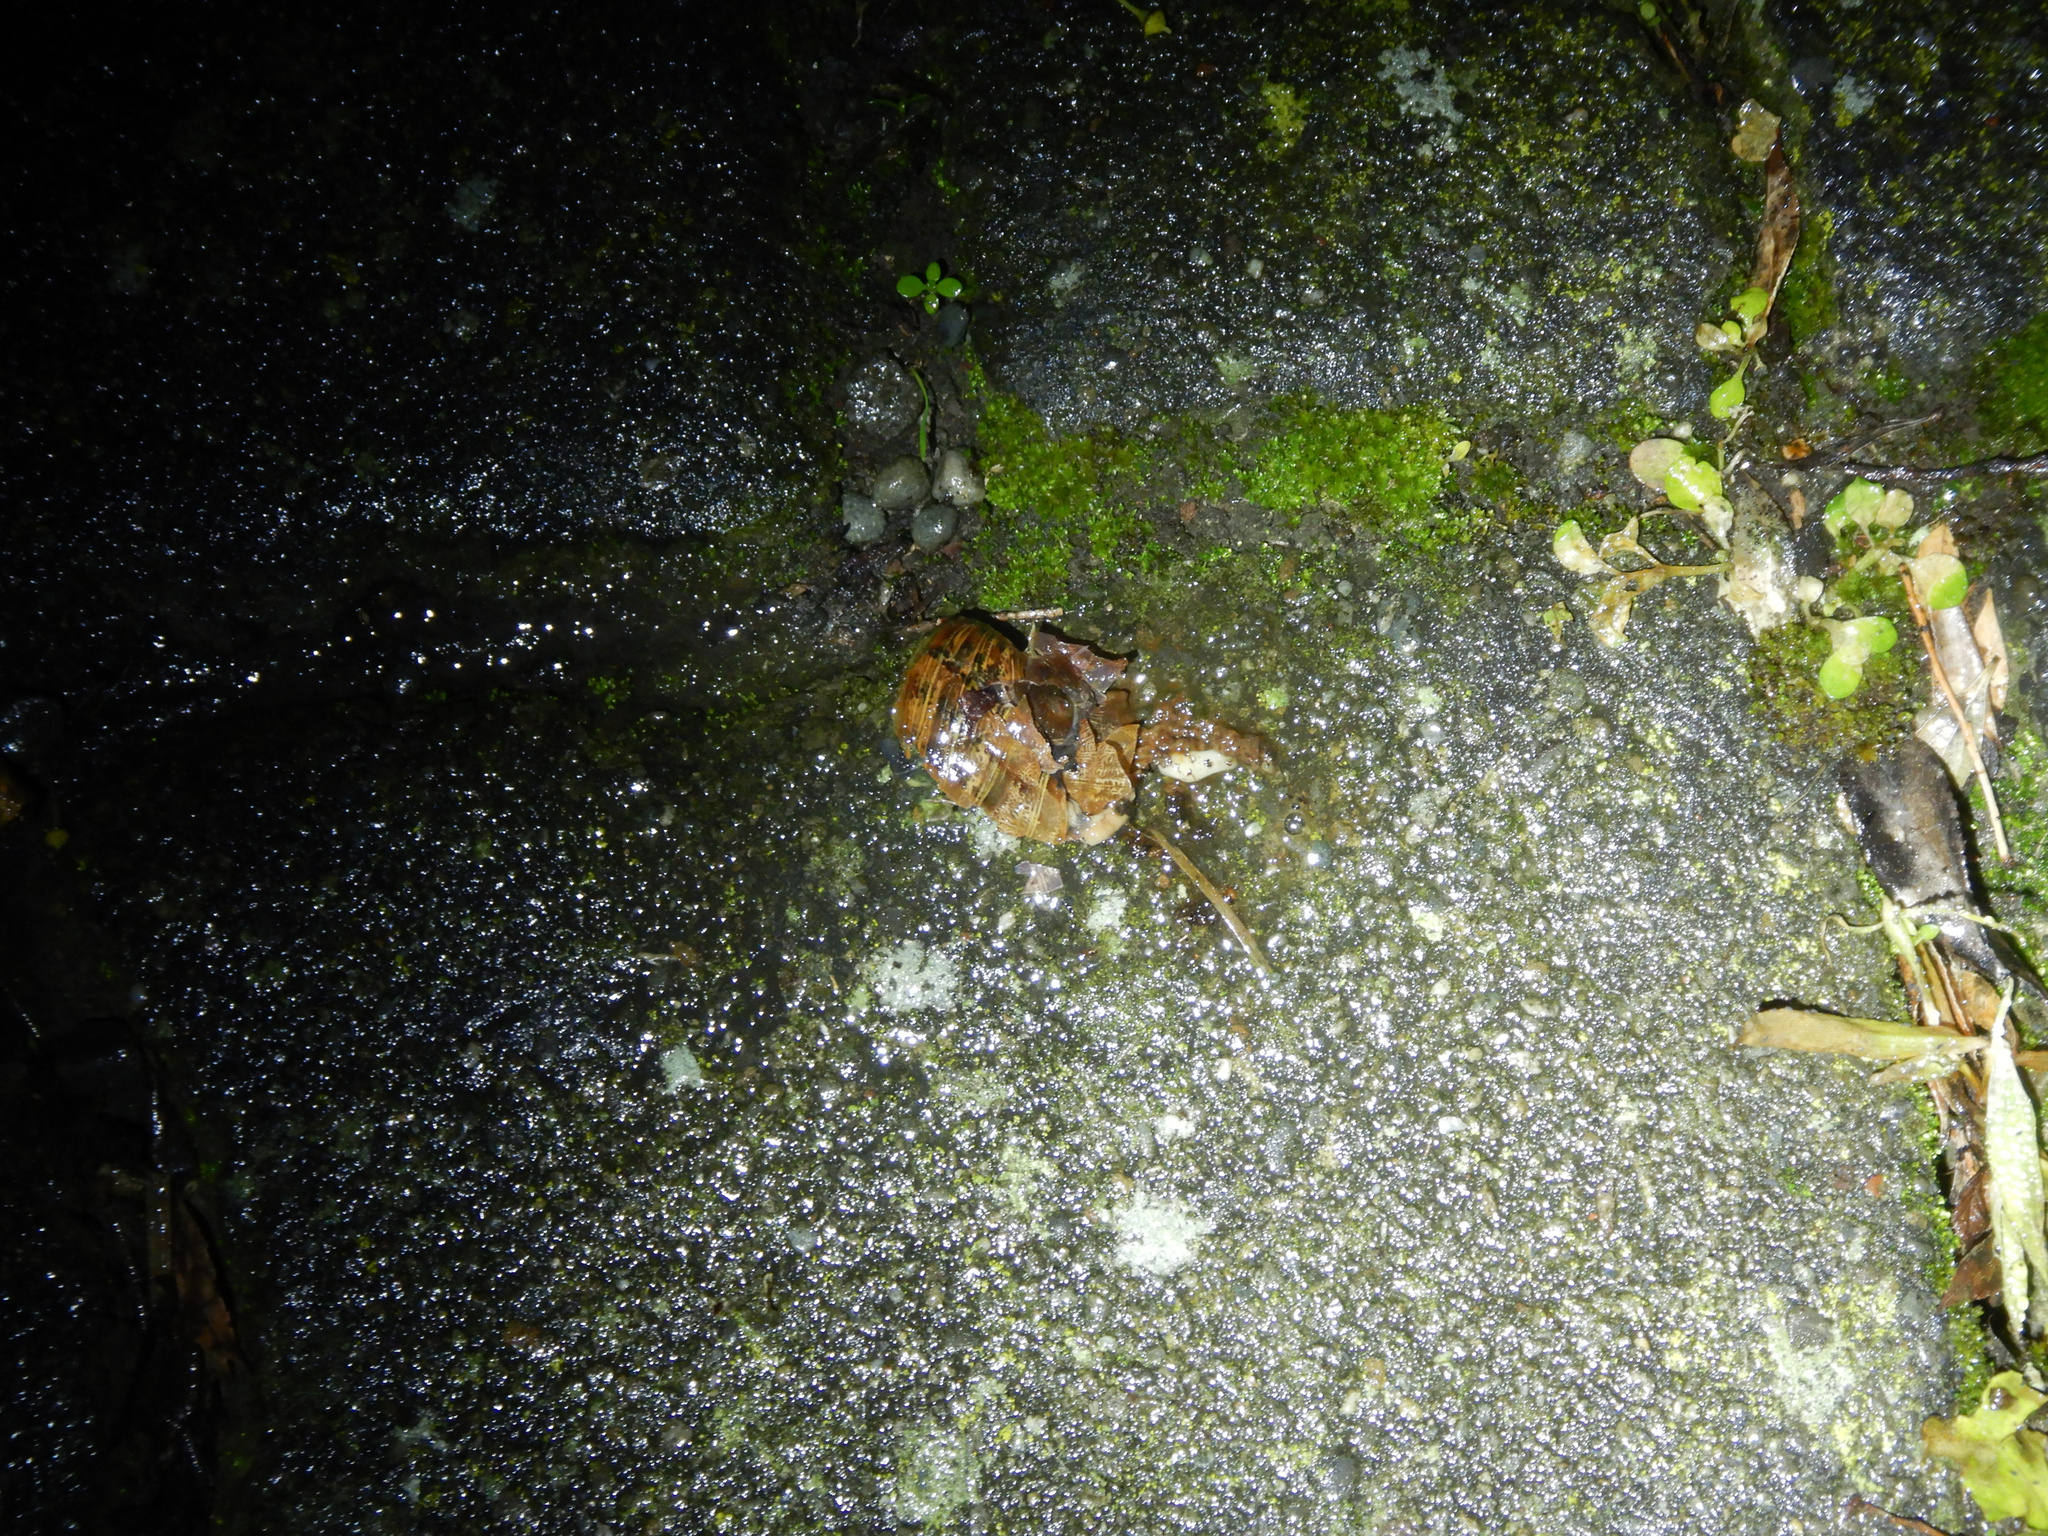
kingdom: Animalia
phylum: Mollusca
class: Gastropoda
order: Stylommatophora
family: Helicidae
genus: Cornu
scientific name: Cornu aspersum
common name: Brown garden snail
